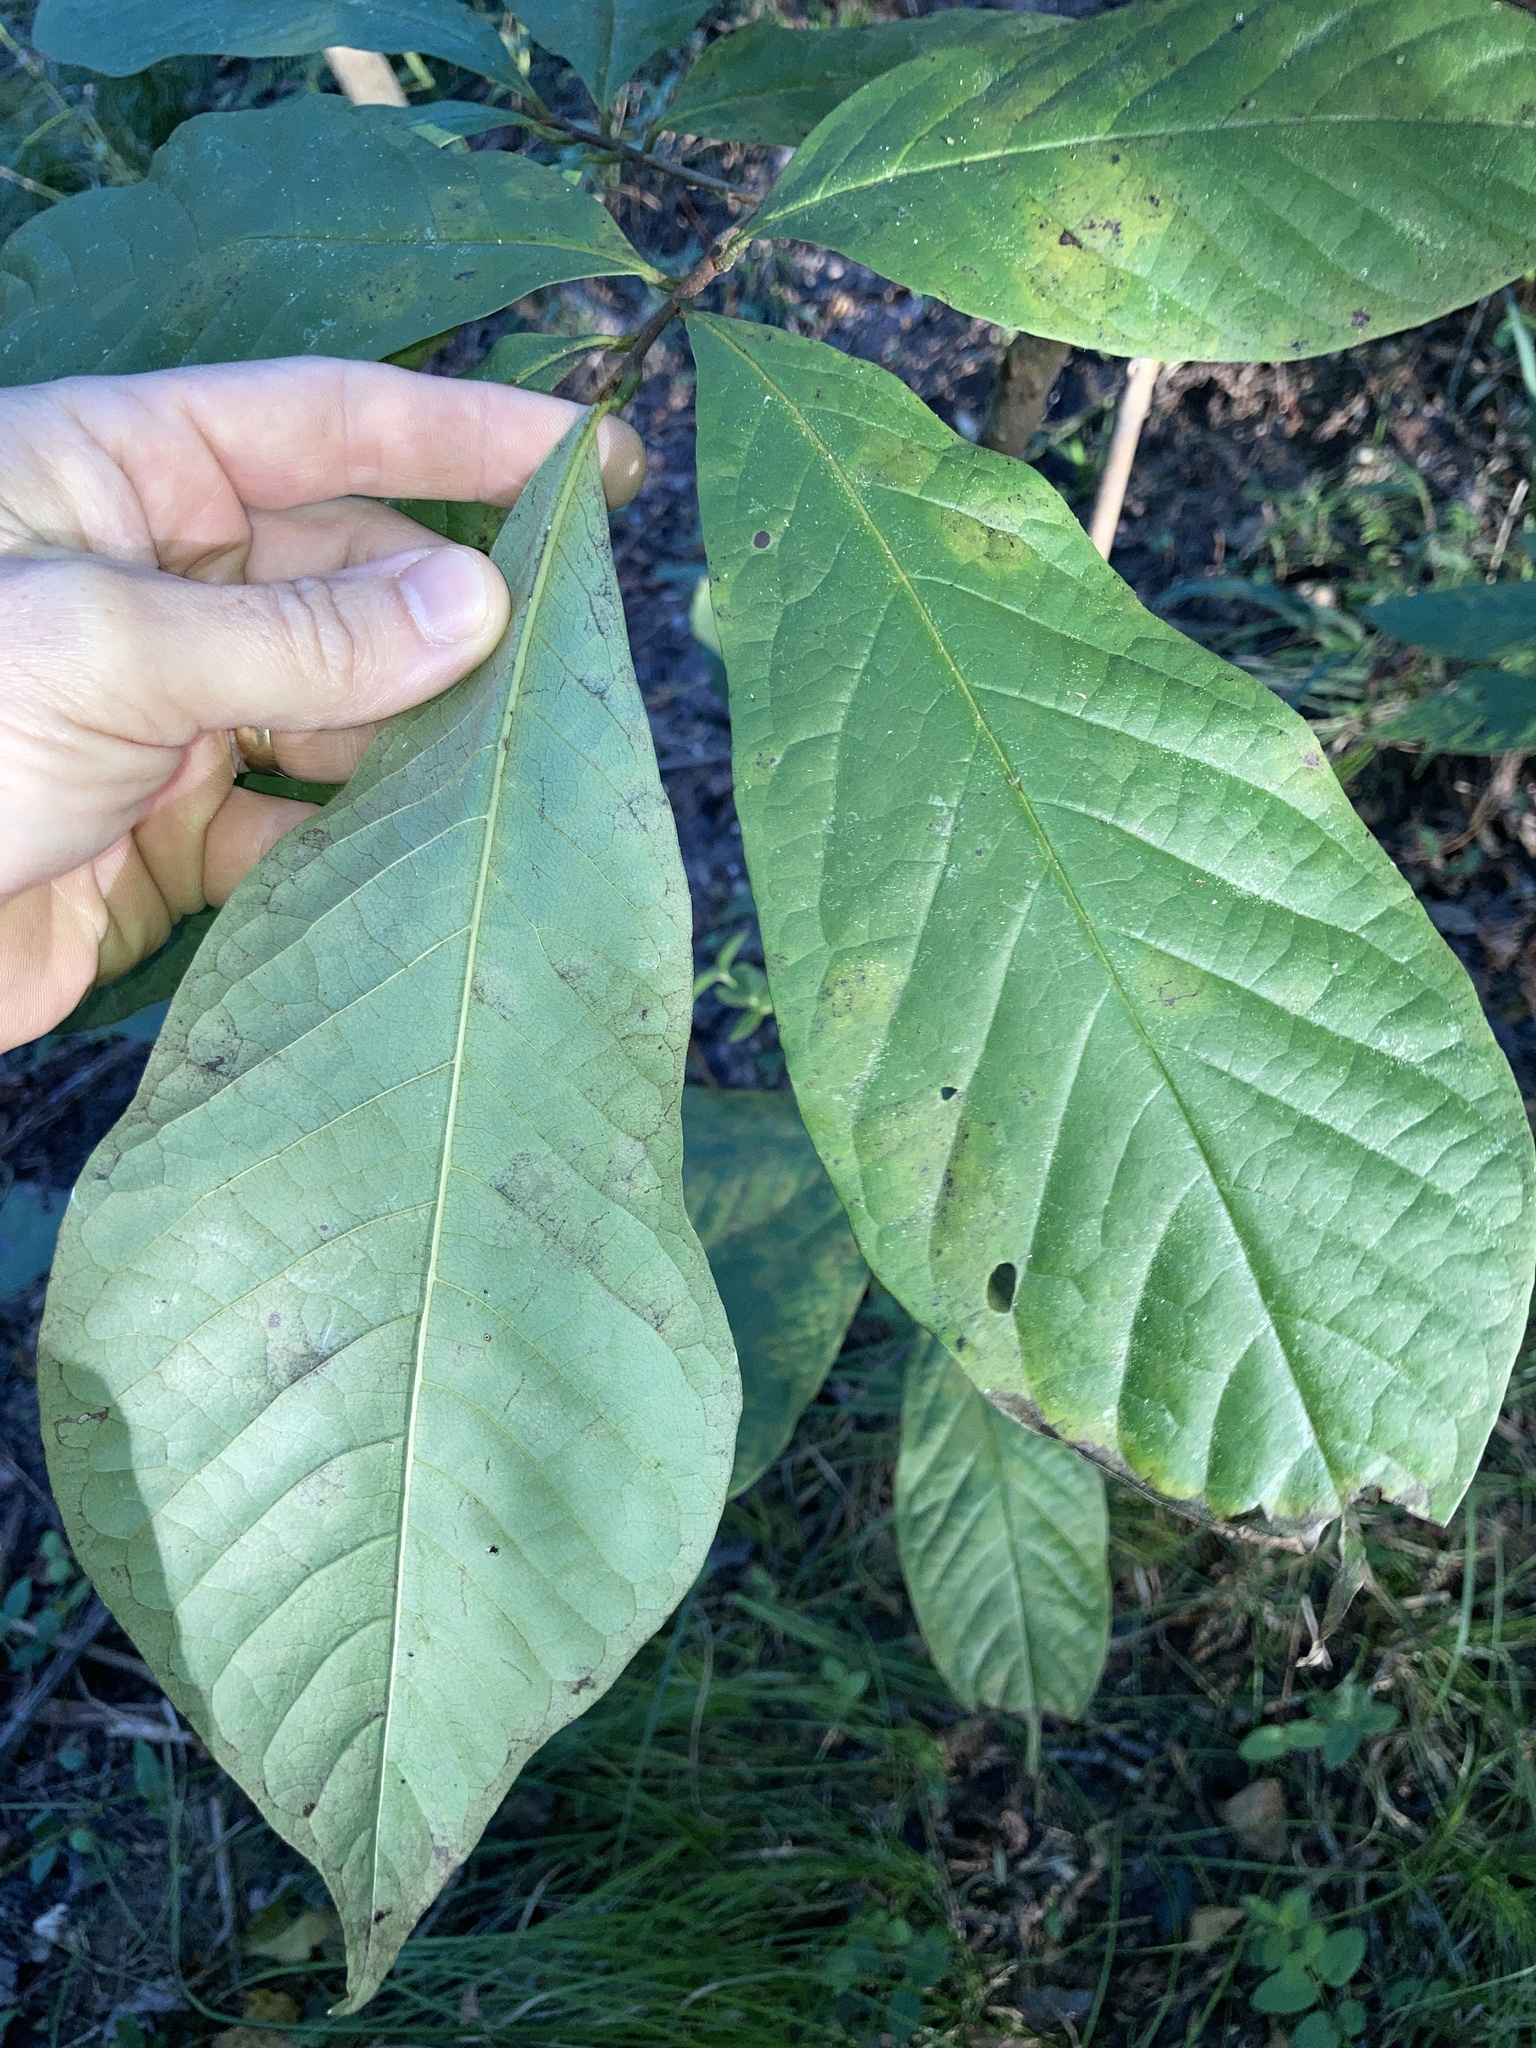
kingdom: Plantae
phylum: Tracheophyta
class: Magnoliopsida
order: Magnoliales
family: Annonaceae
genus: Asimina
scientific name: Asimina triloba
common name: Dog-banana
